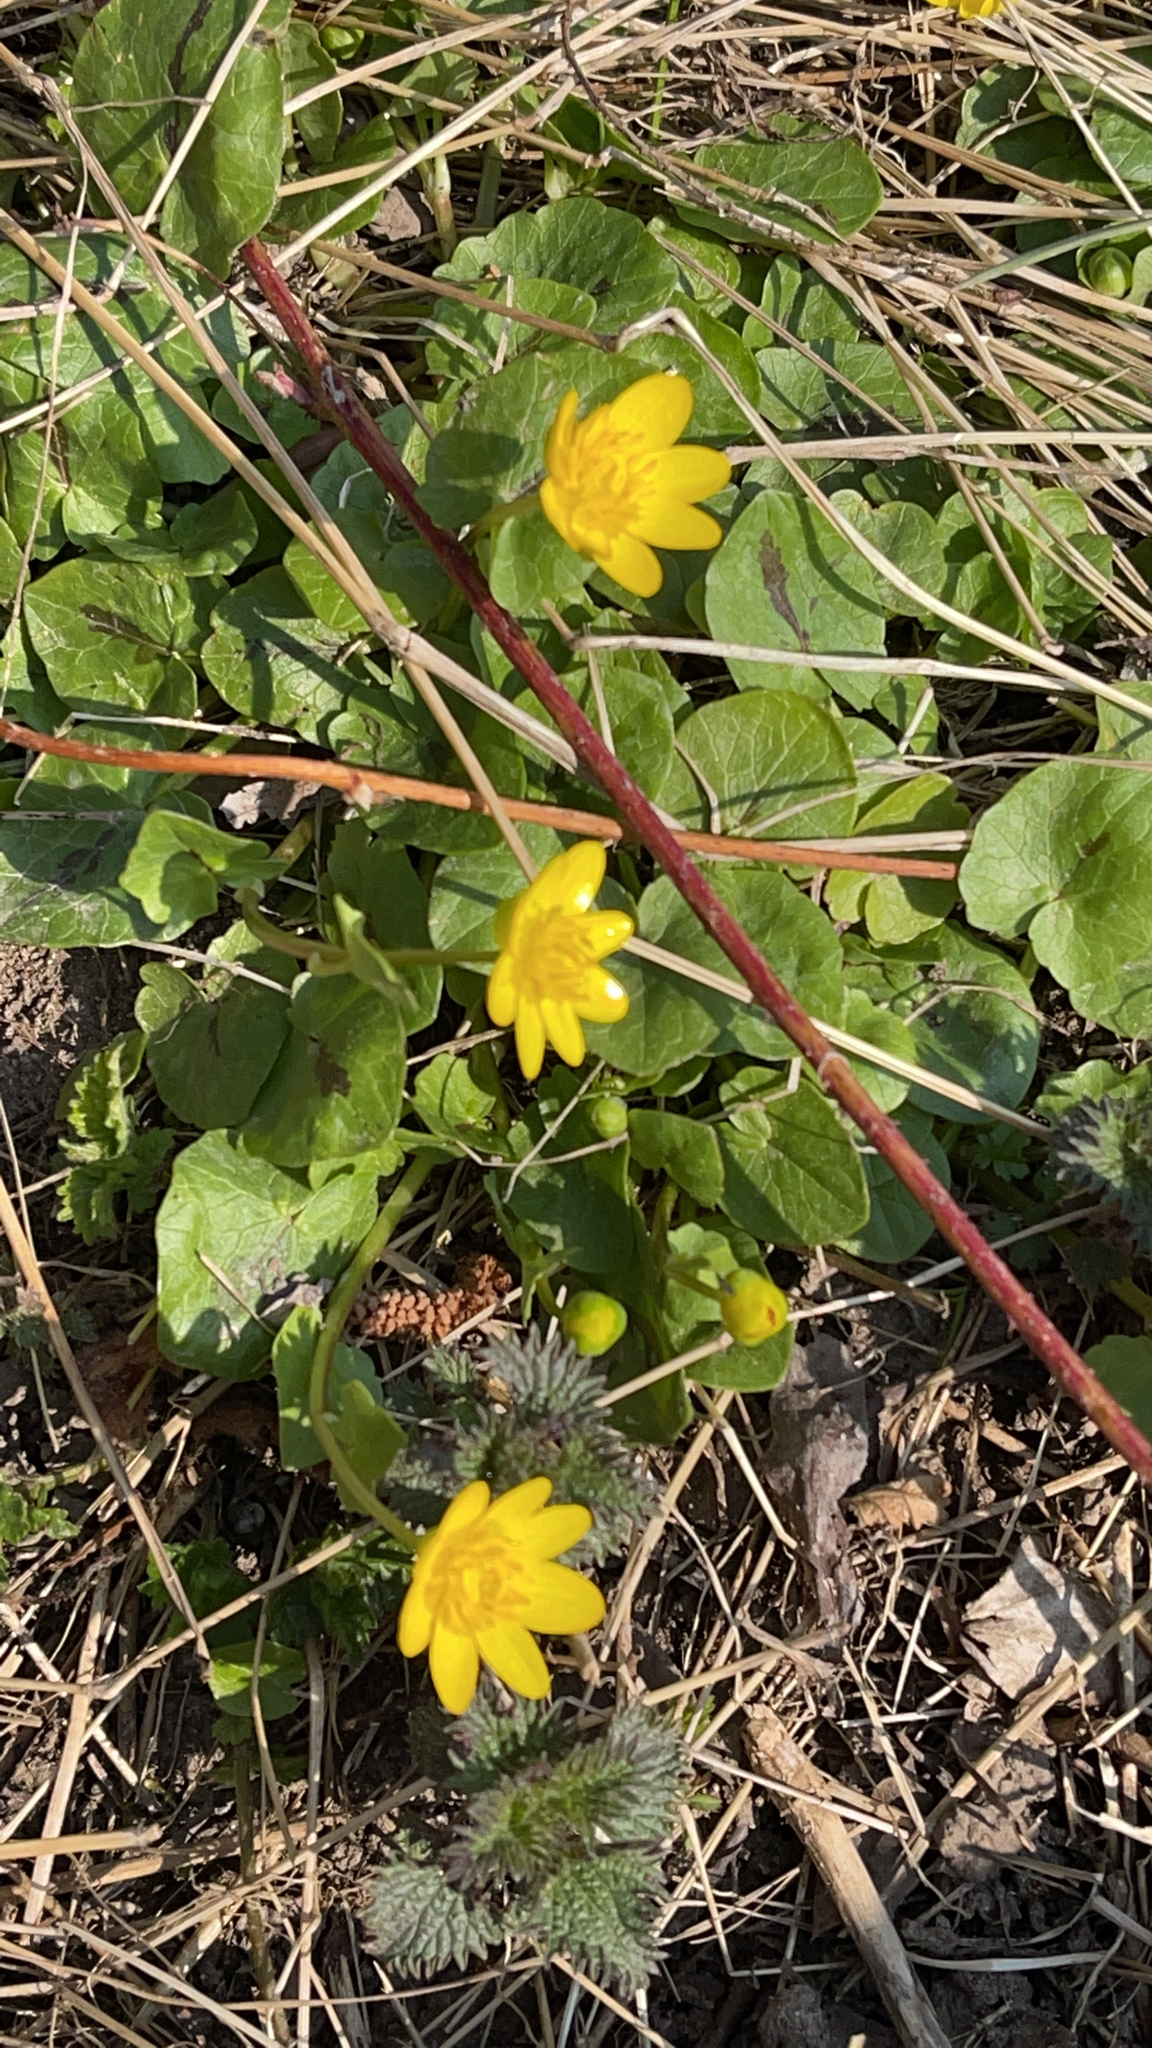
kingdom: Plantae
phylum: Tracheophyta
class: Magnoliopsida
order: Ranunculales
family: Ranunculaceae
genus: Ficaria
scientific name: Ficaria verna
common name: Lesser celandine
